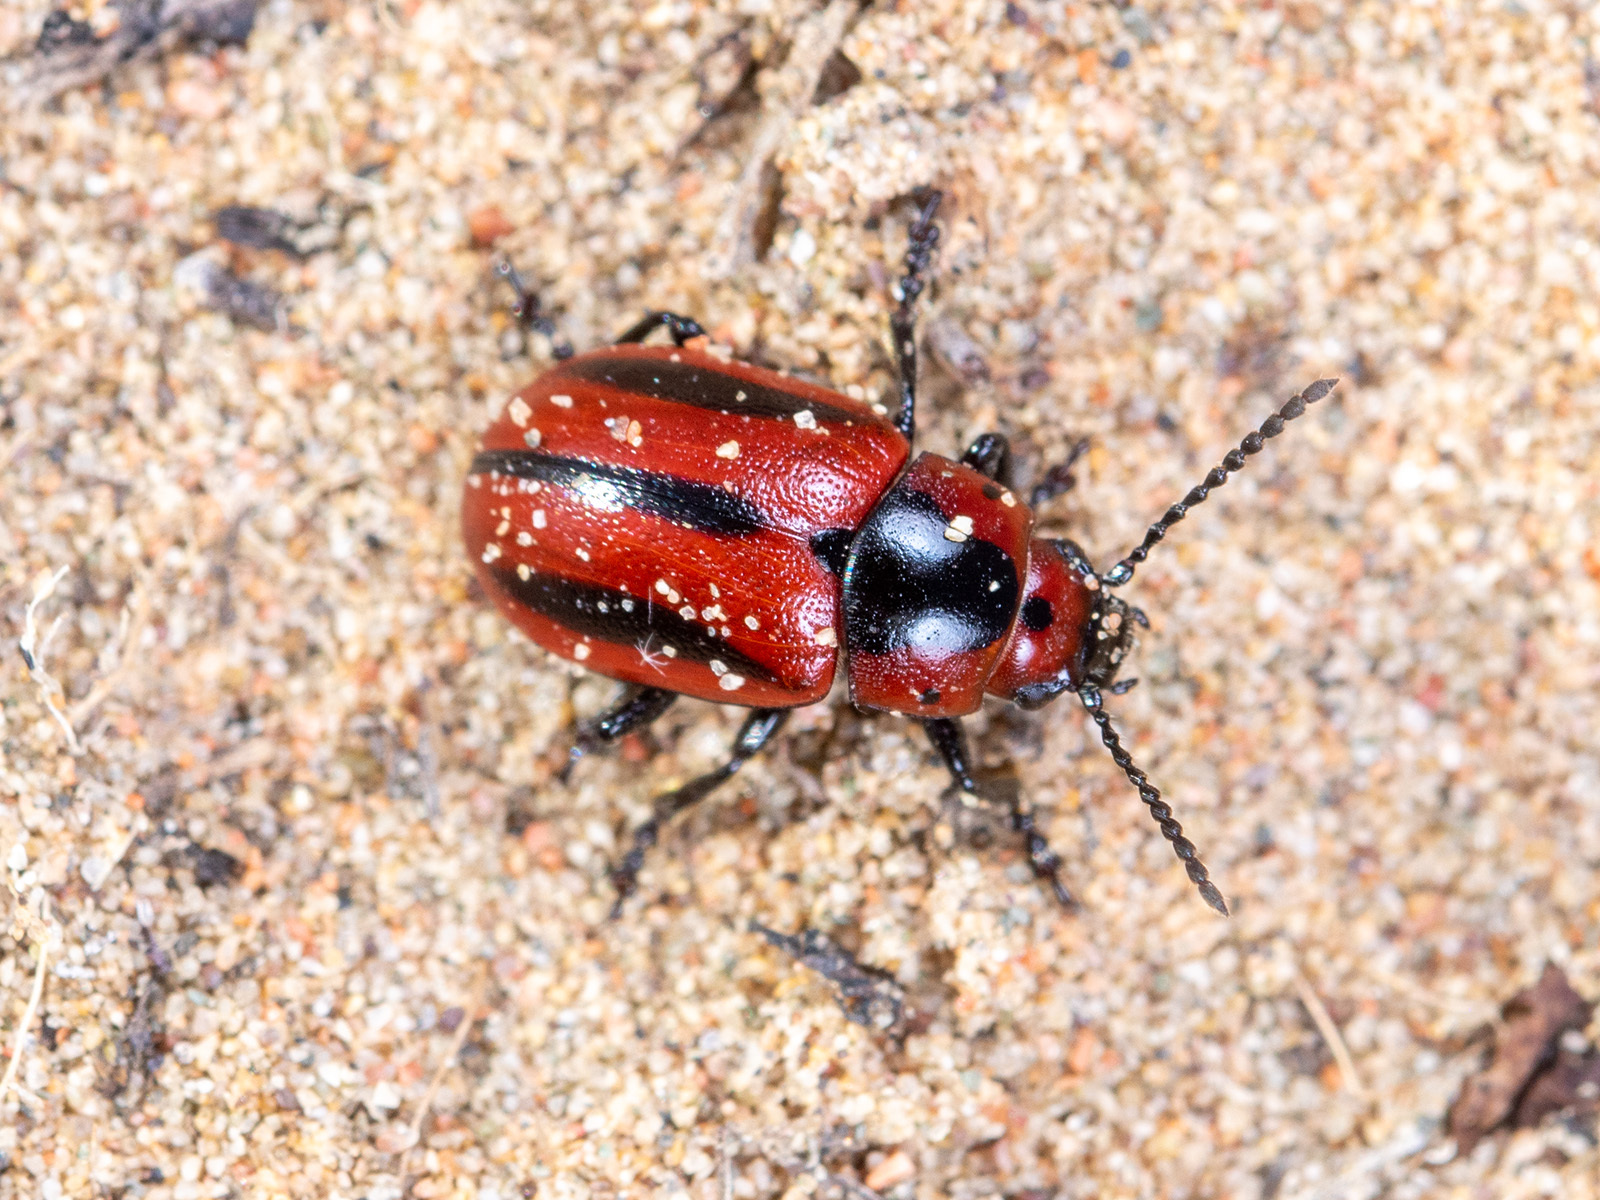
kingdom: Animalia
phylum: Arthropoda
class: Insecta
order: Coleoptera
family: Chrysomelidae
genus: Entomoscelis
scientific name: Entomoscelis adonidis
